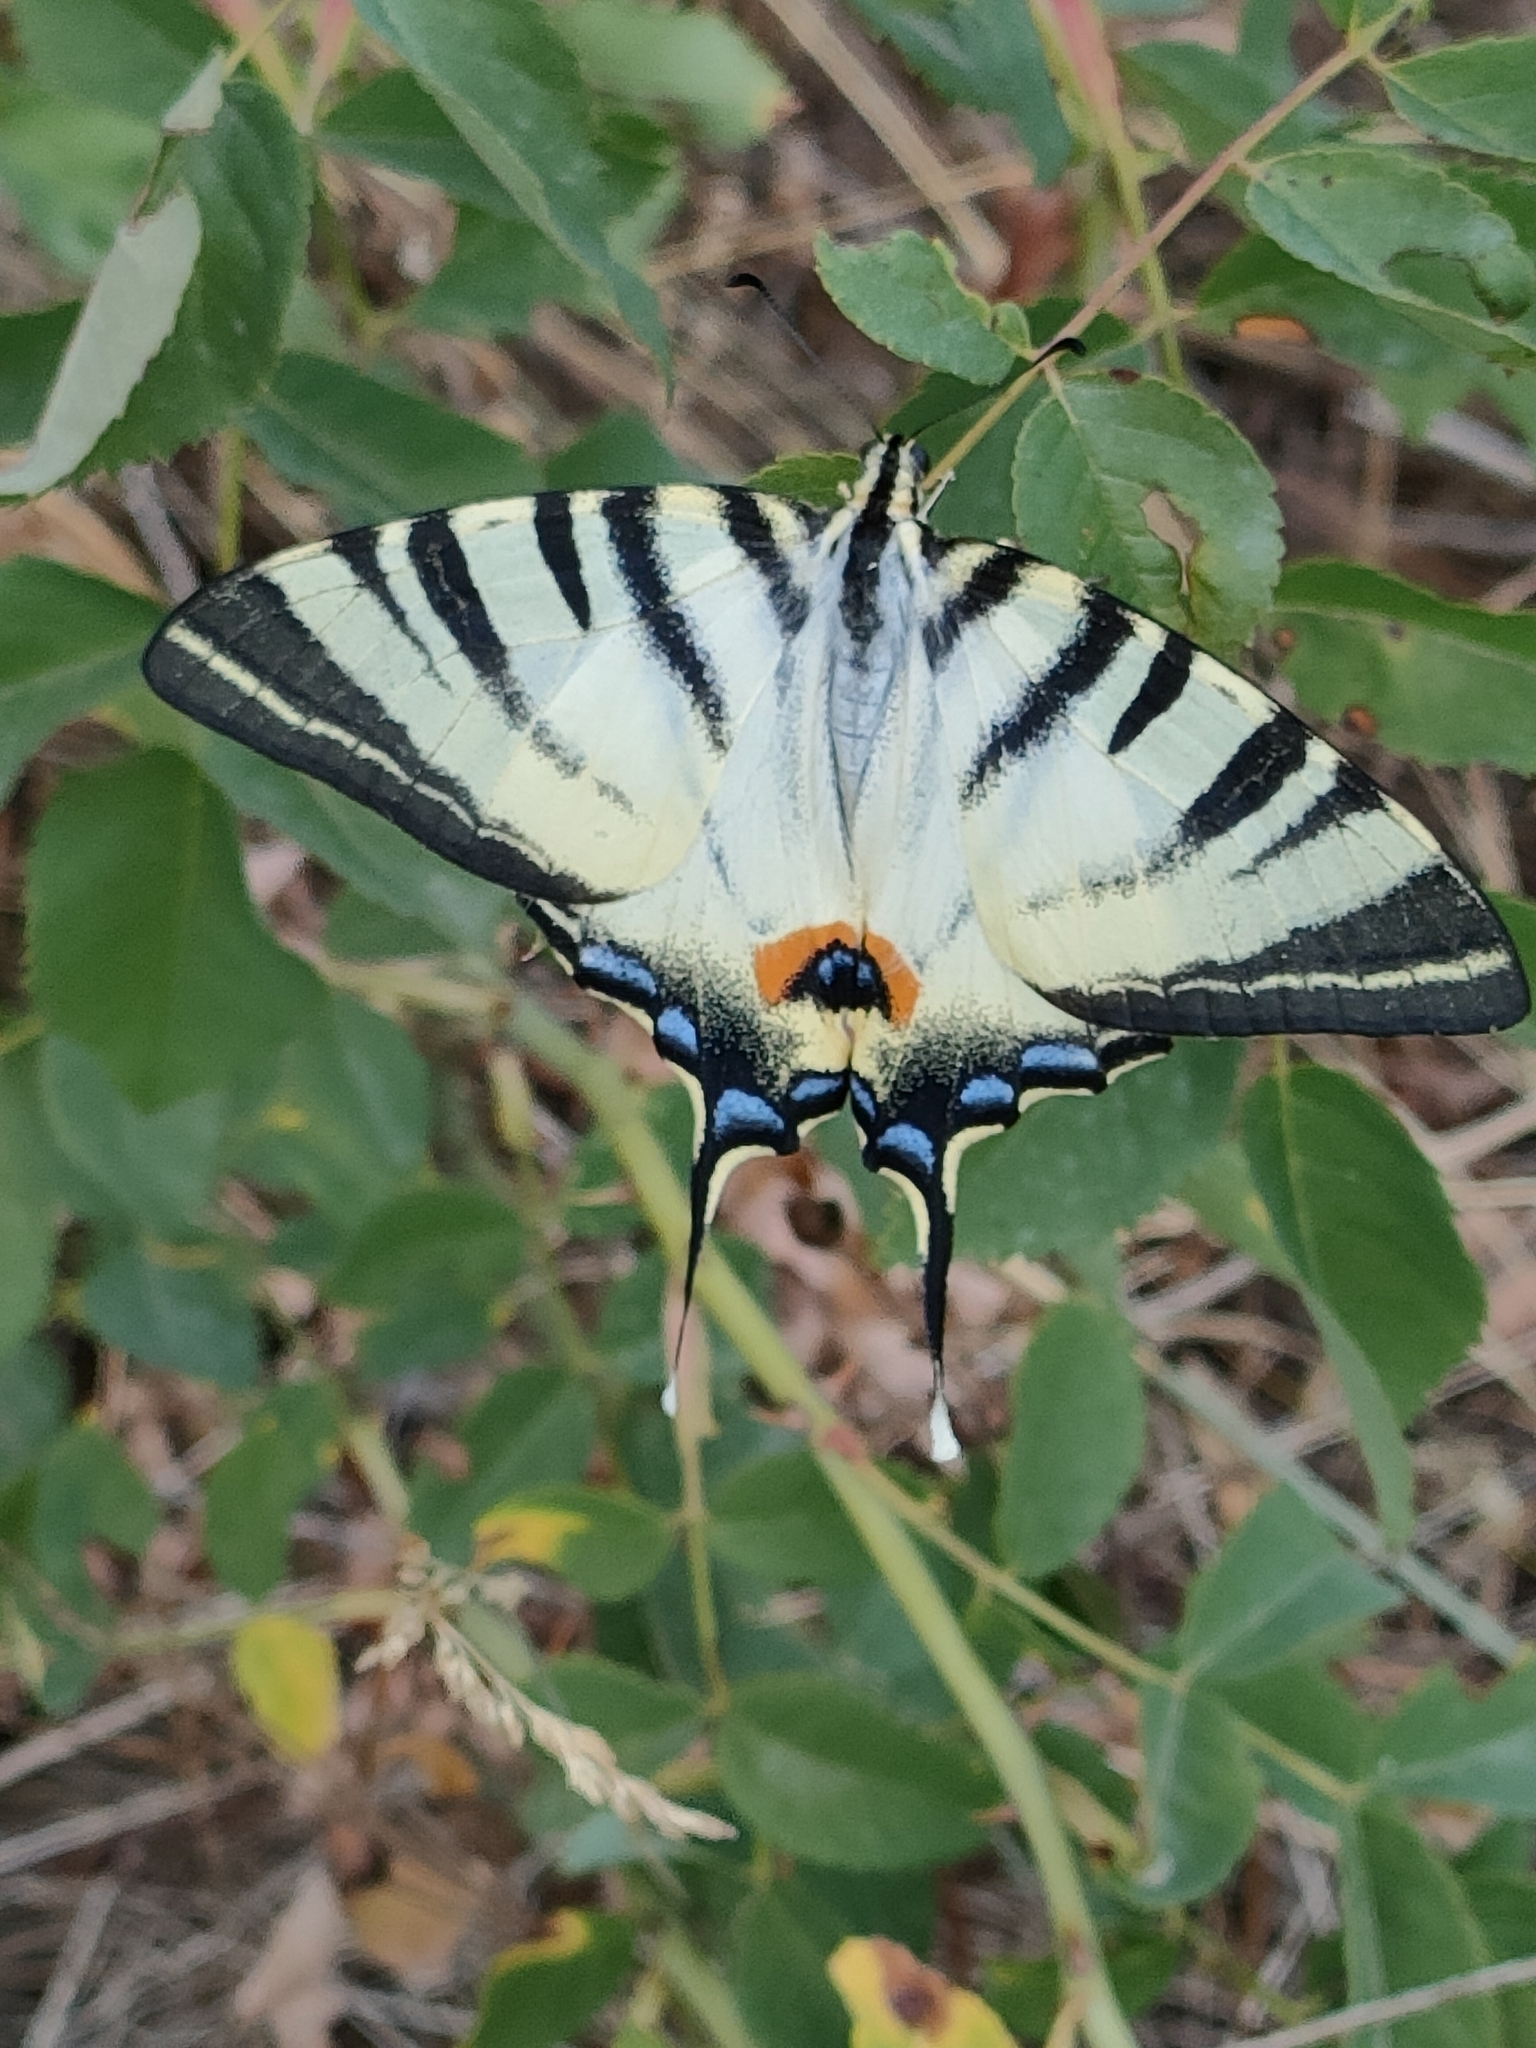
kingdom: Animalia
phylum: Arthropoda
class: Insecta
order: Lepidoptera
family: Papilionidae
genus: Iphiclides
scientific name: Iphiclides podalirius
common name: Scarce swallowtail
